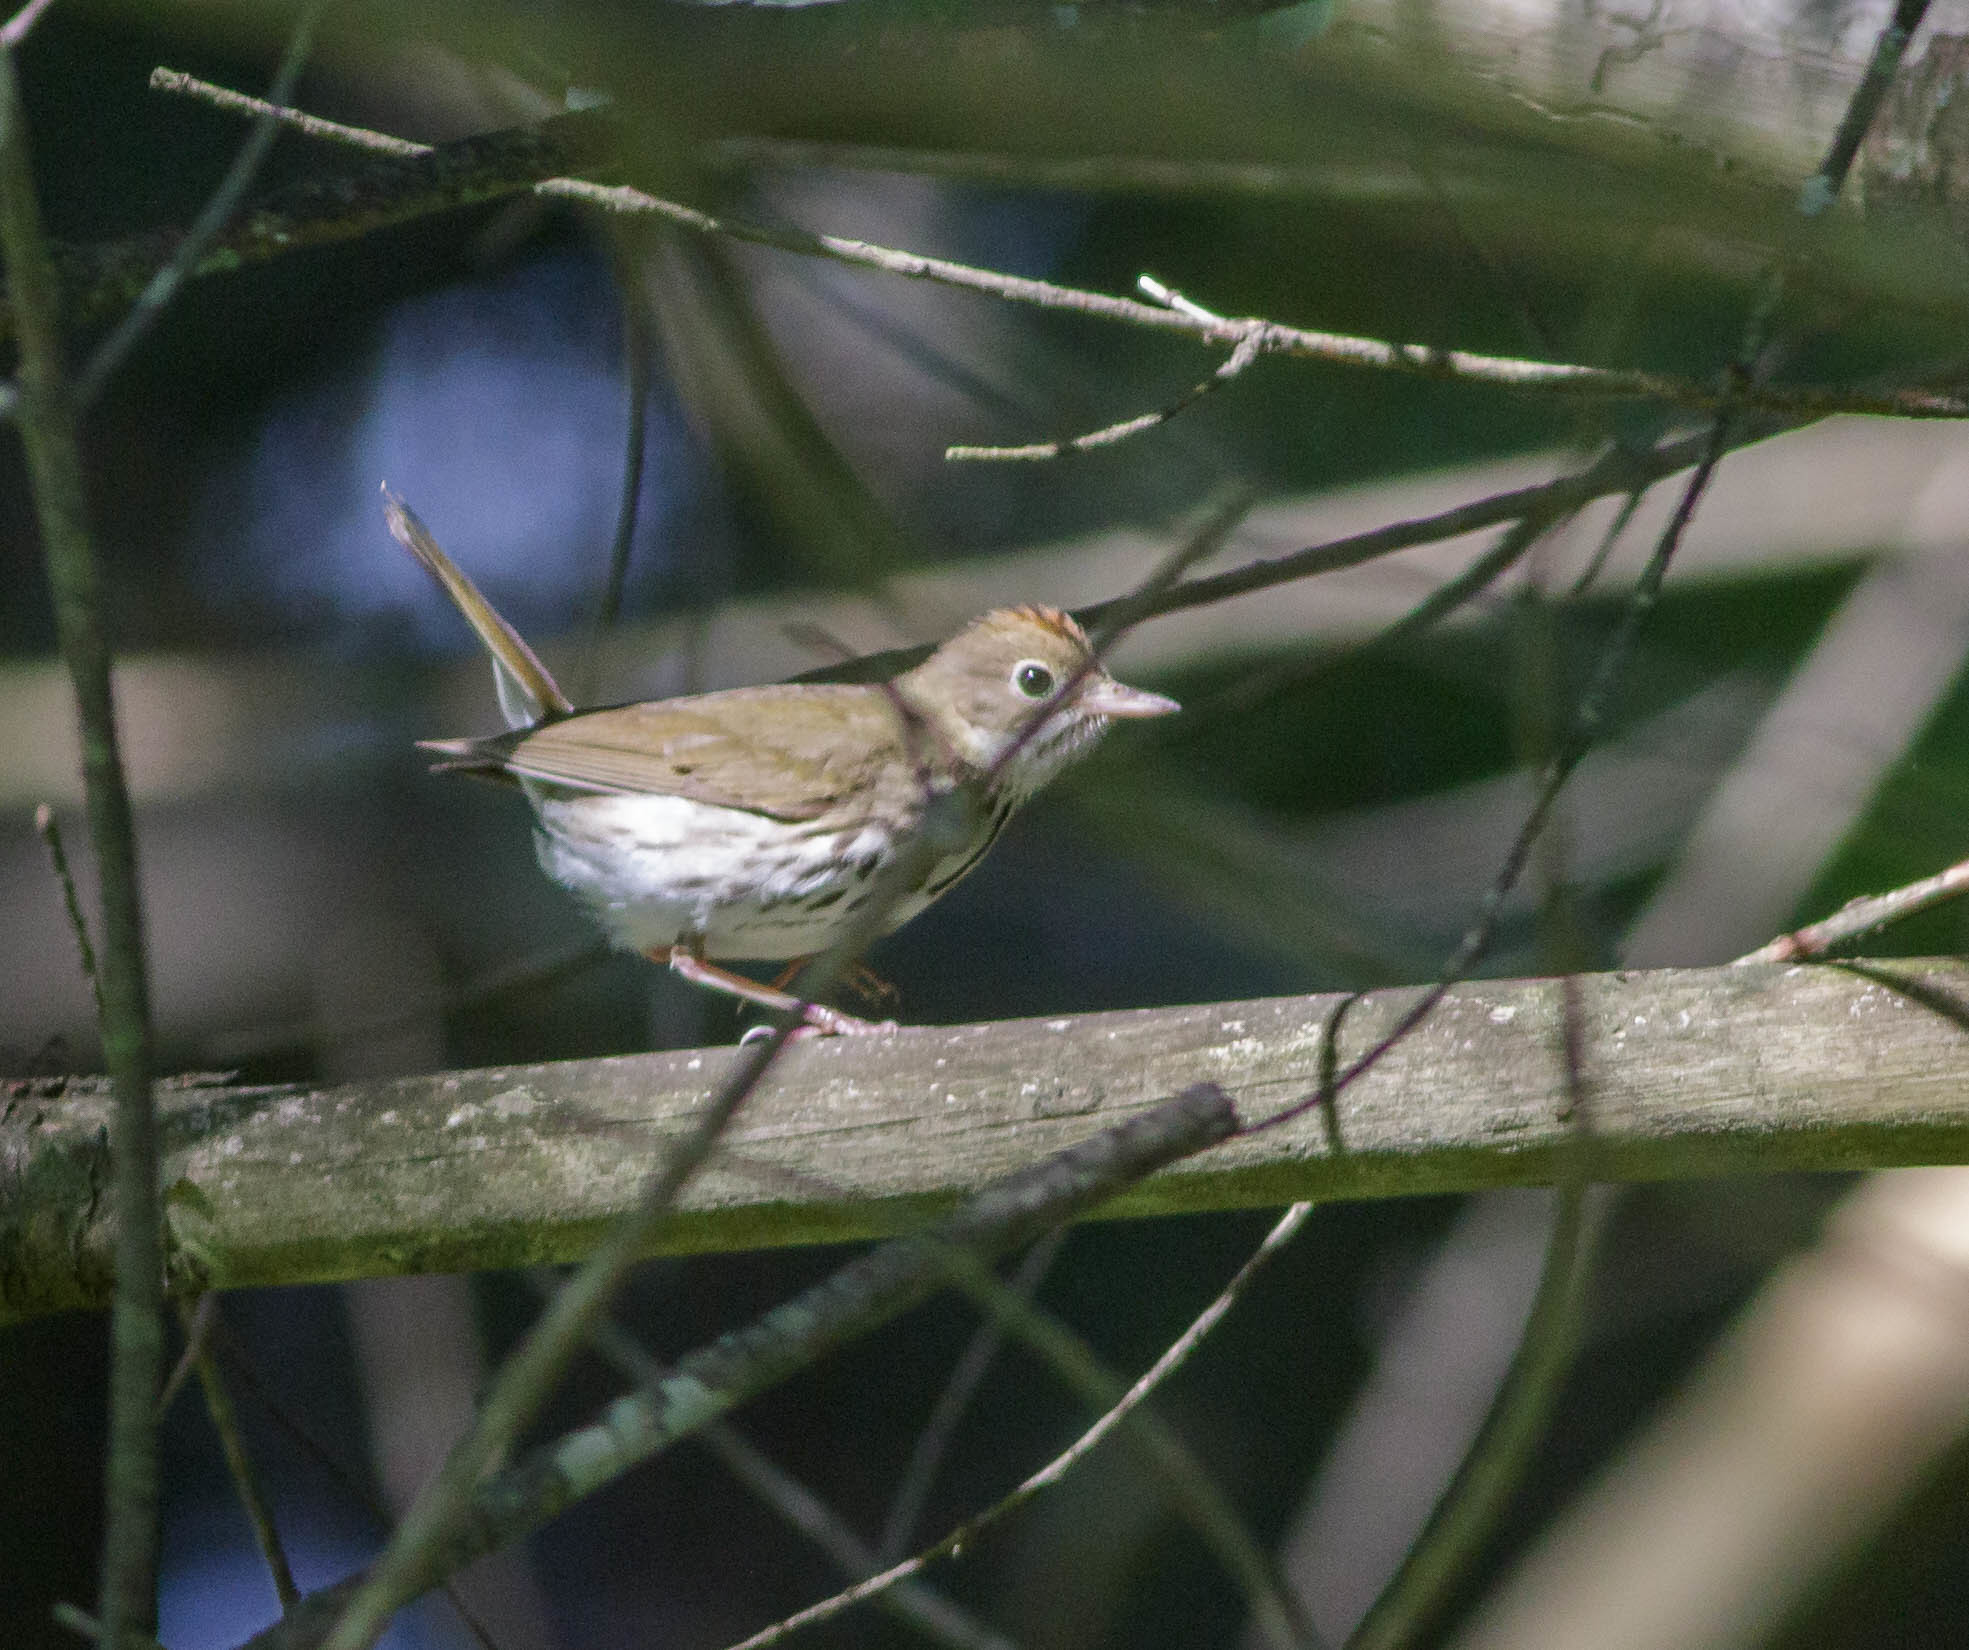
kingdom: Animalia
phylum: Chordata
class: Aves
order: Passeriformes
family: Parulidae
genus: Seiurus
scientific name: Seiurus aurocapilla
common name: Ovenbird
